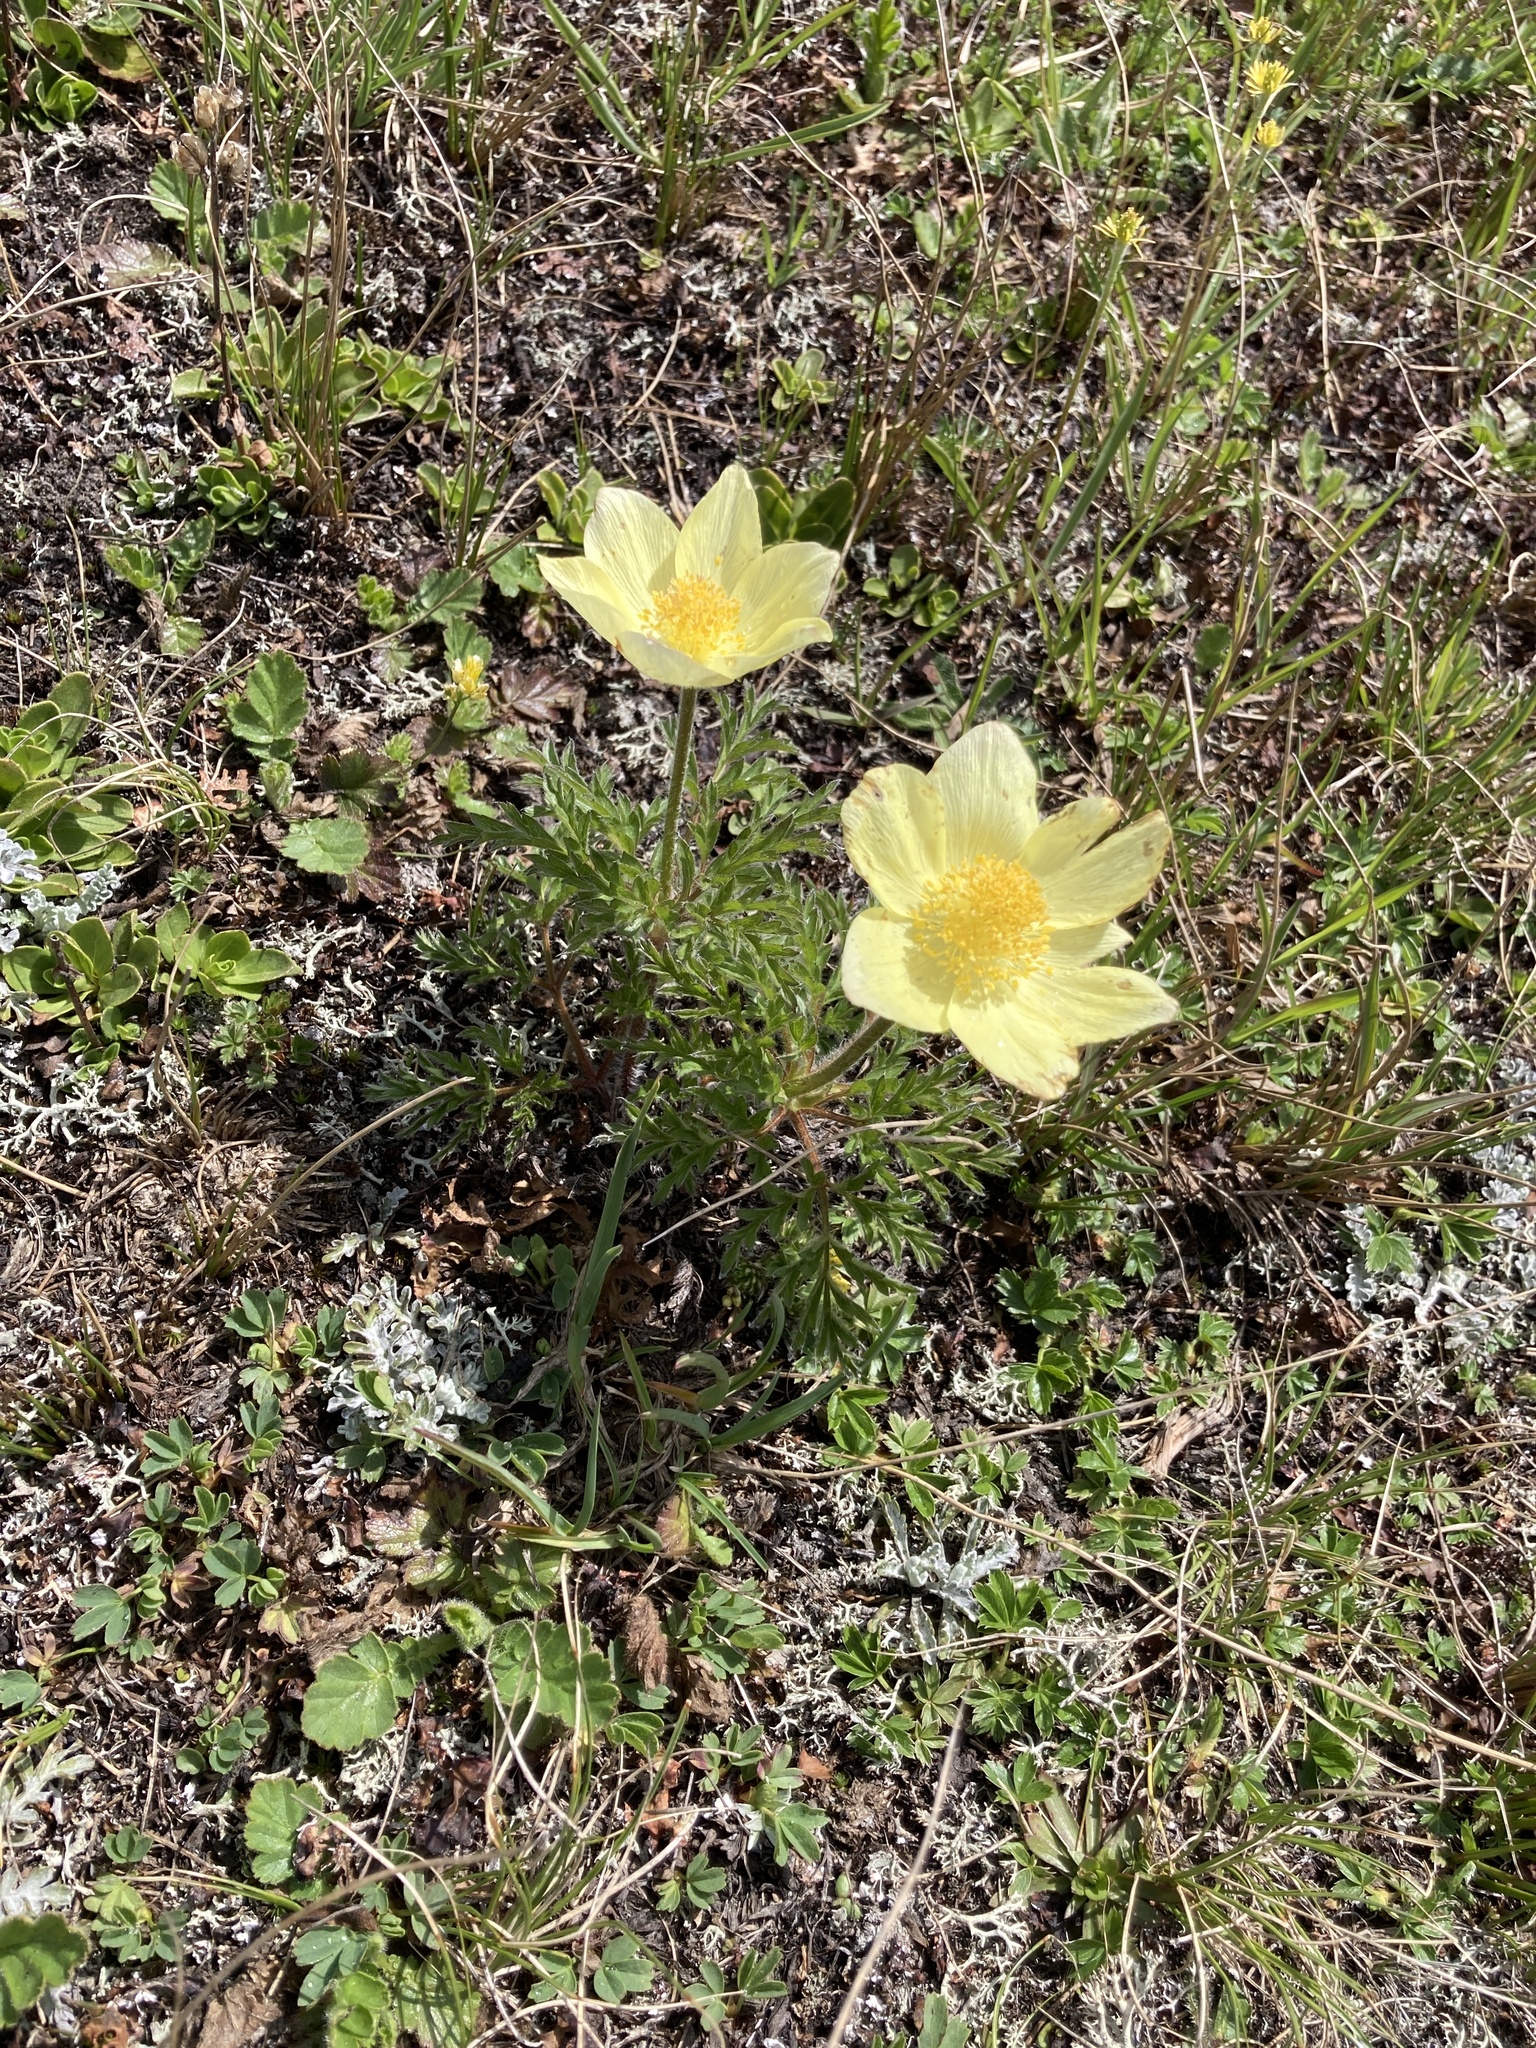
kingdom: Plantae
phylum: Tracheophyta
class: Magnoliopsida
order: Ranunculales
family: Ranunculaceae
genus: Pulsatilla
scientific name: Pulsatilla alpina
